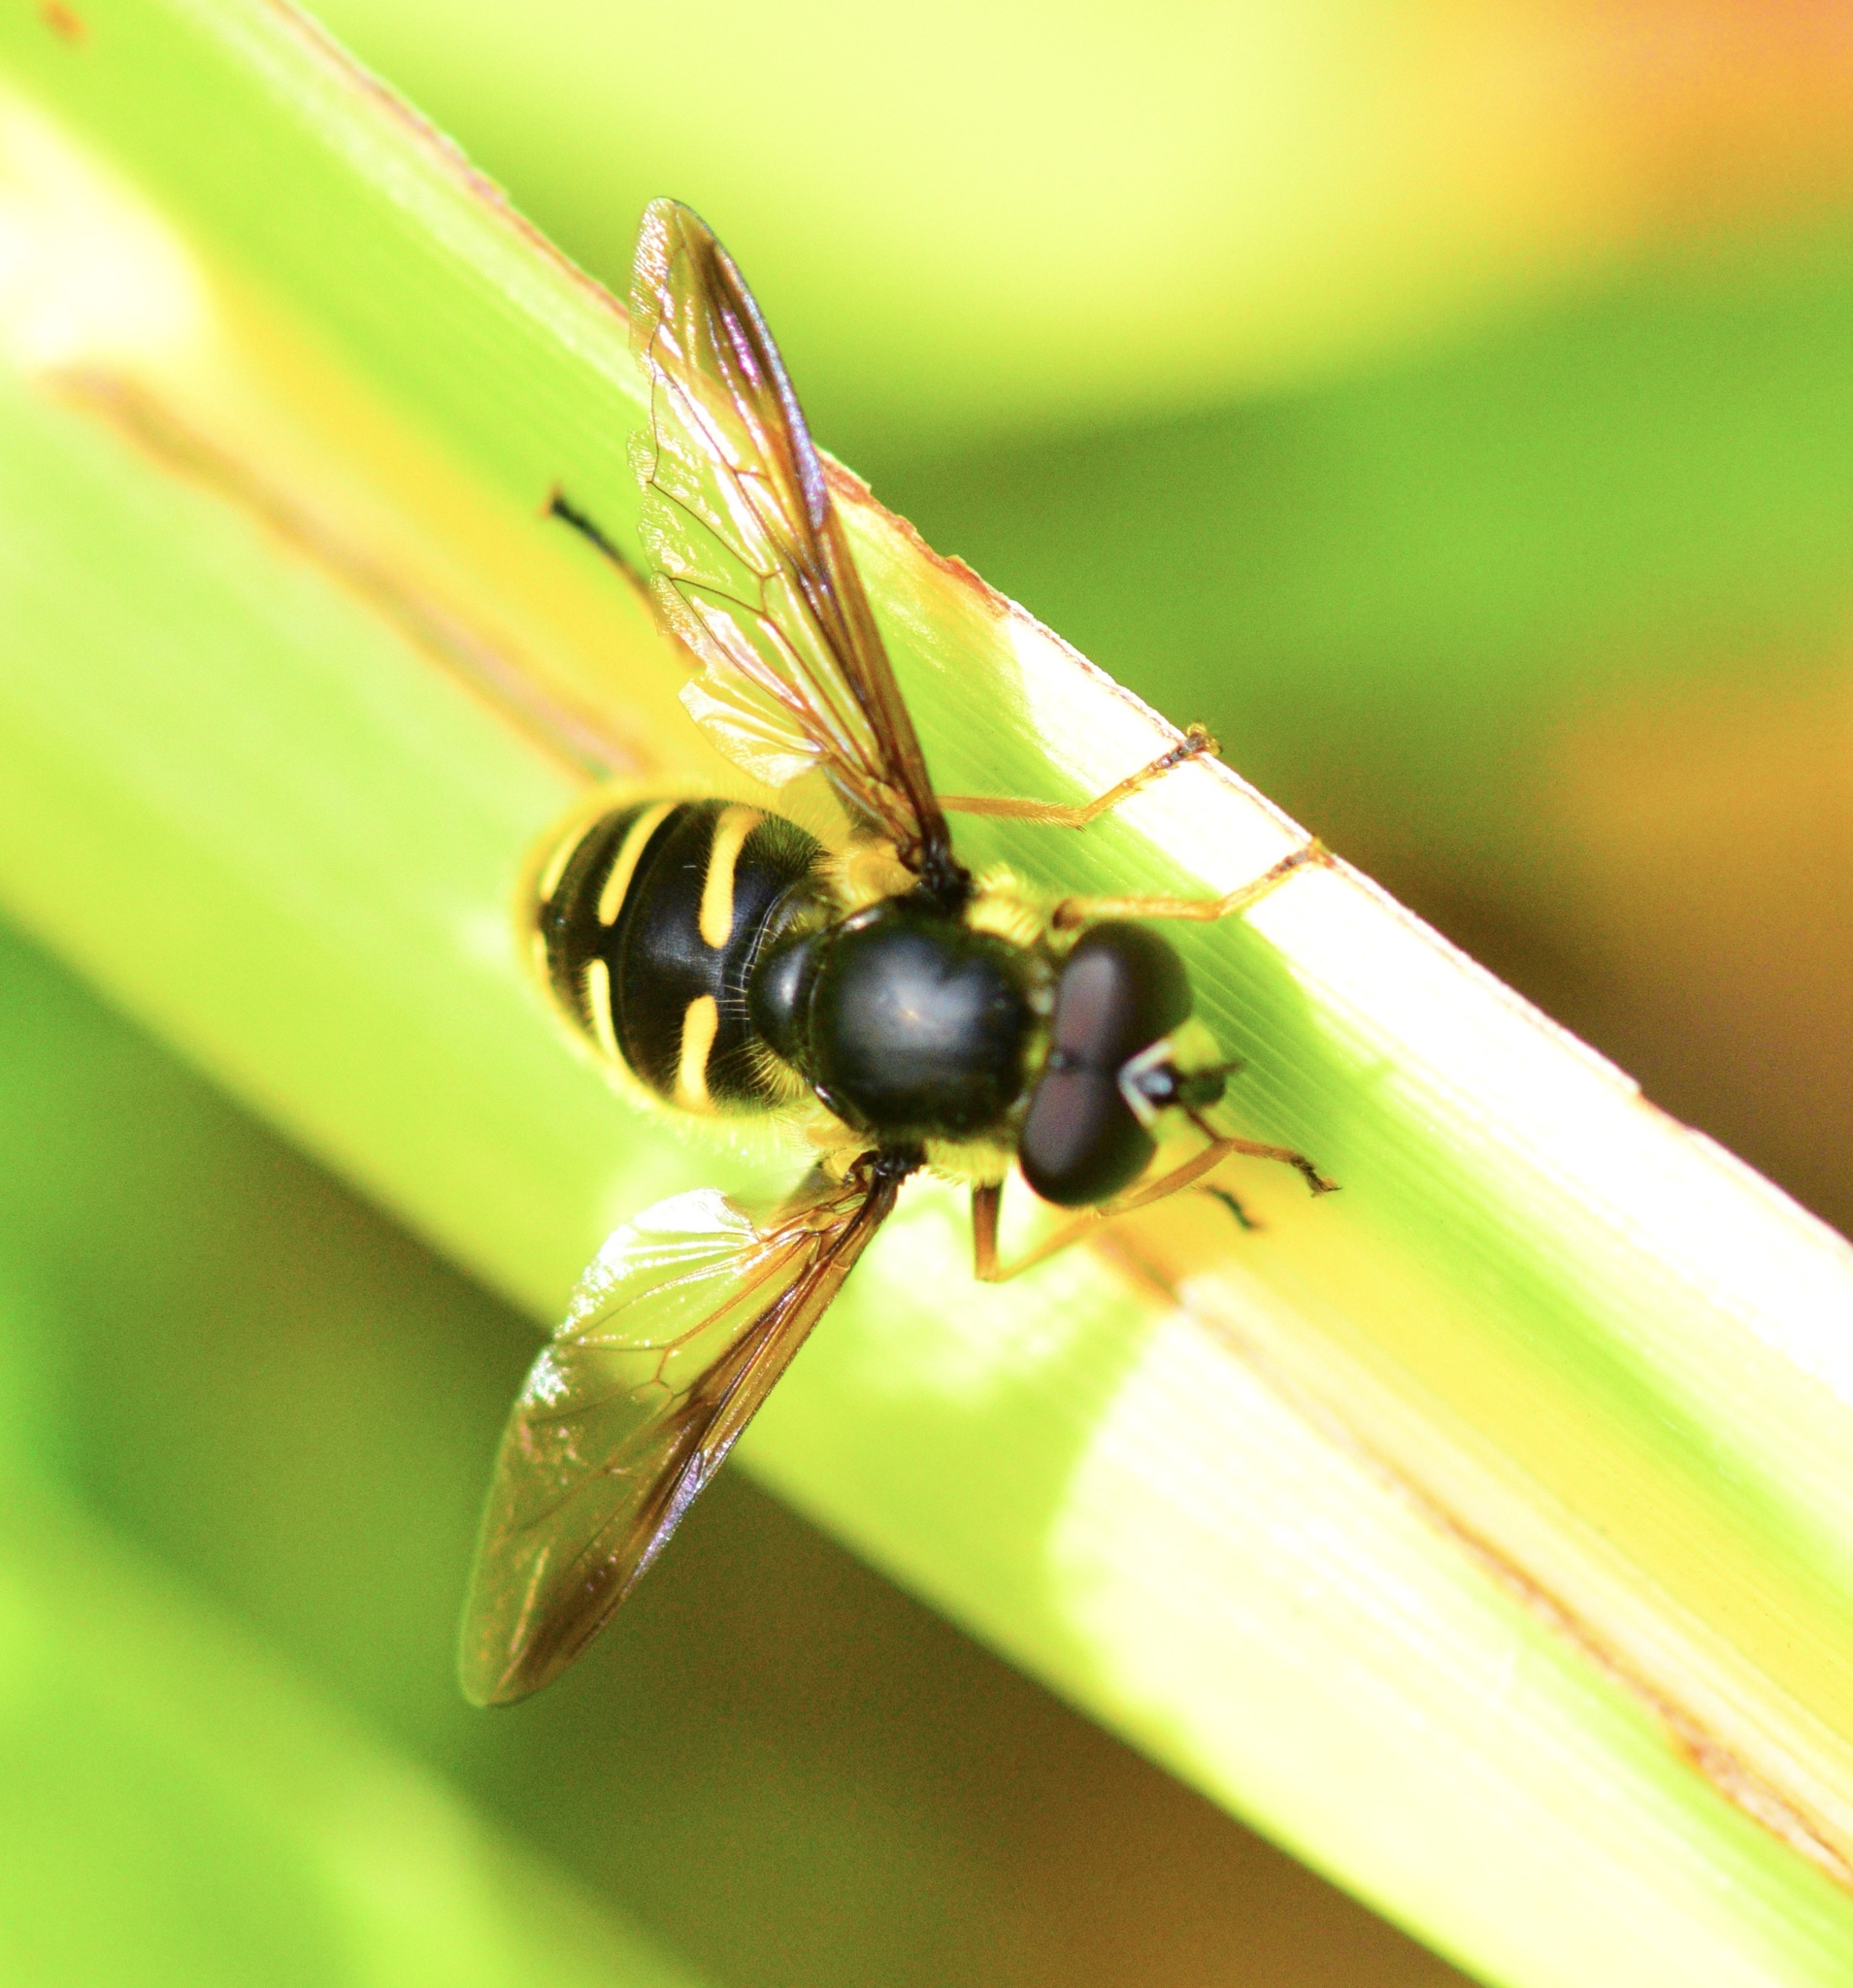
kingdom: Animalia
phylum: Arthropoda
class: Insecta
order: Diptera
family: Syrphidae
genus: Sericomyia
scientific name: Sericomyia chrysotoxoides
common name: Oblique-banded pond fly
